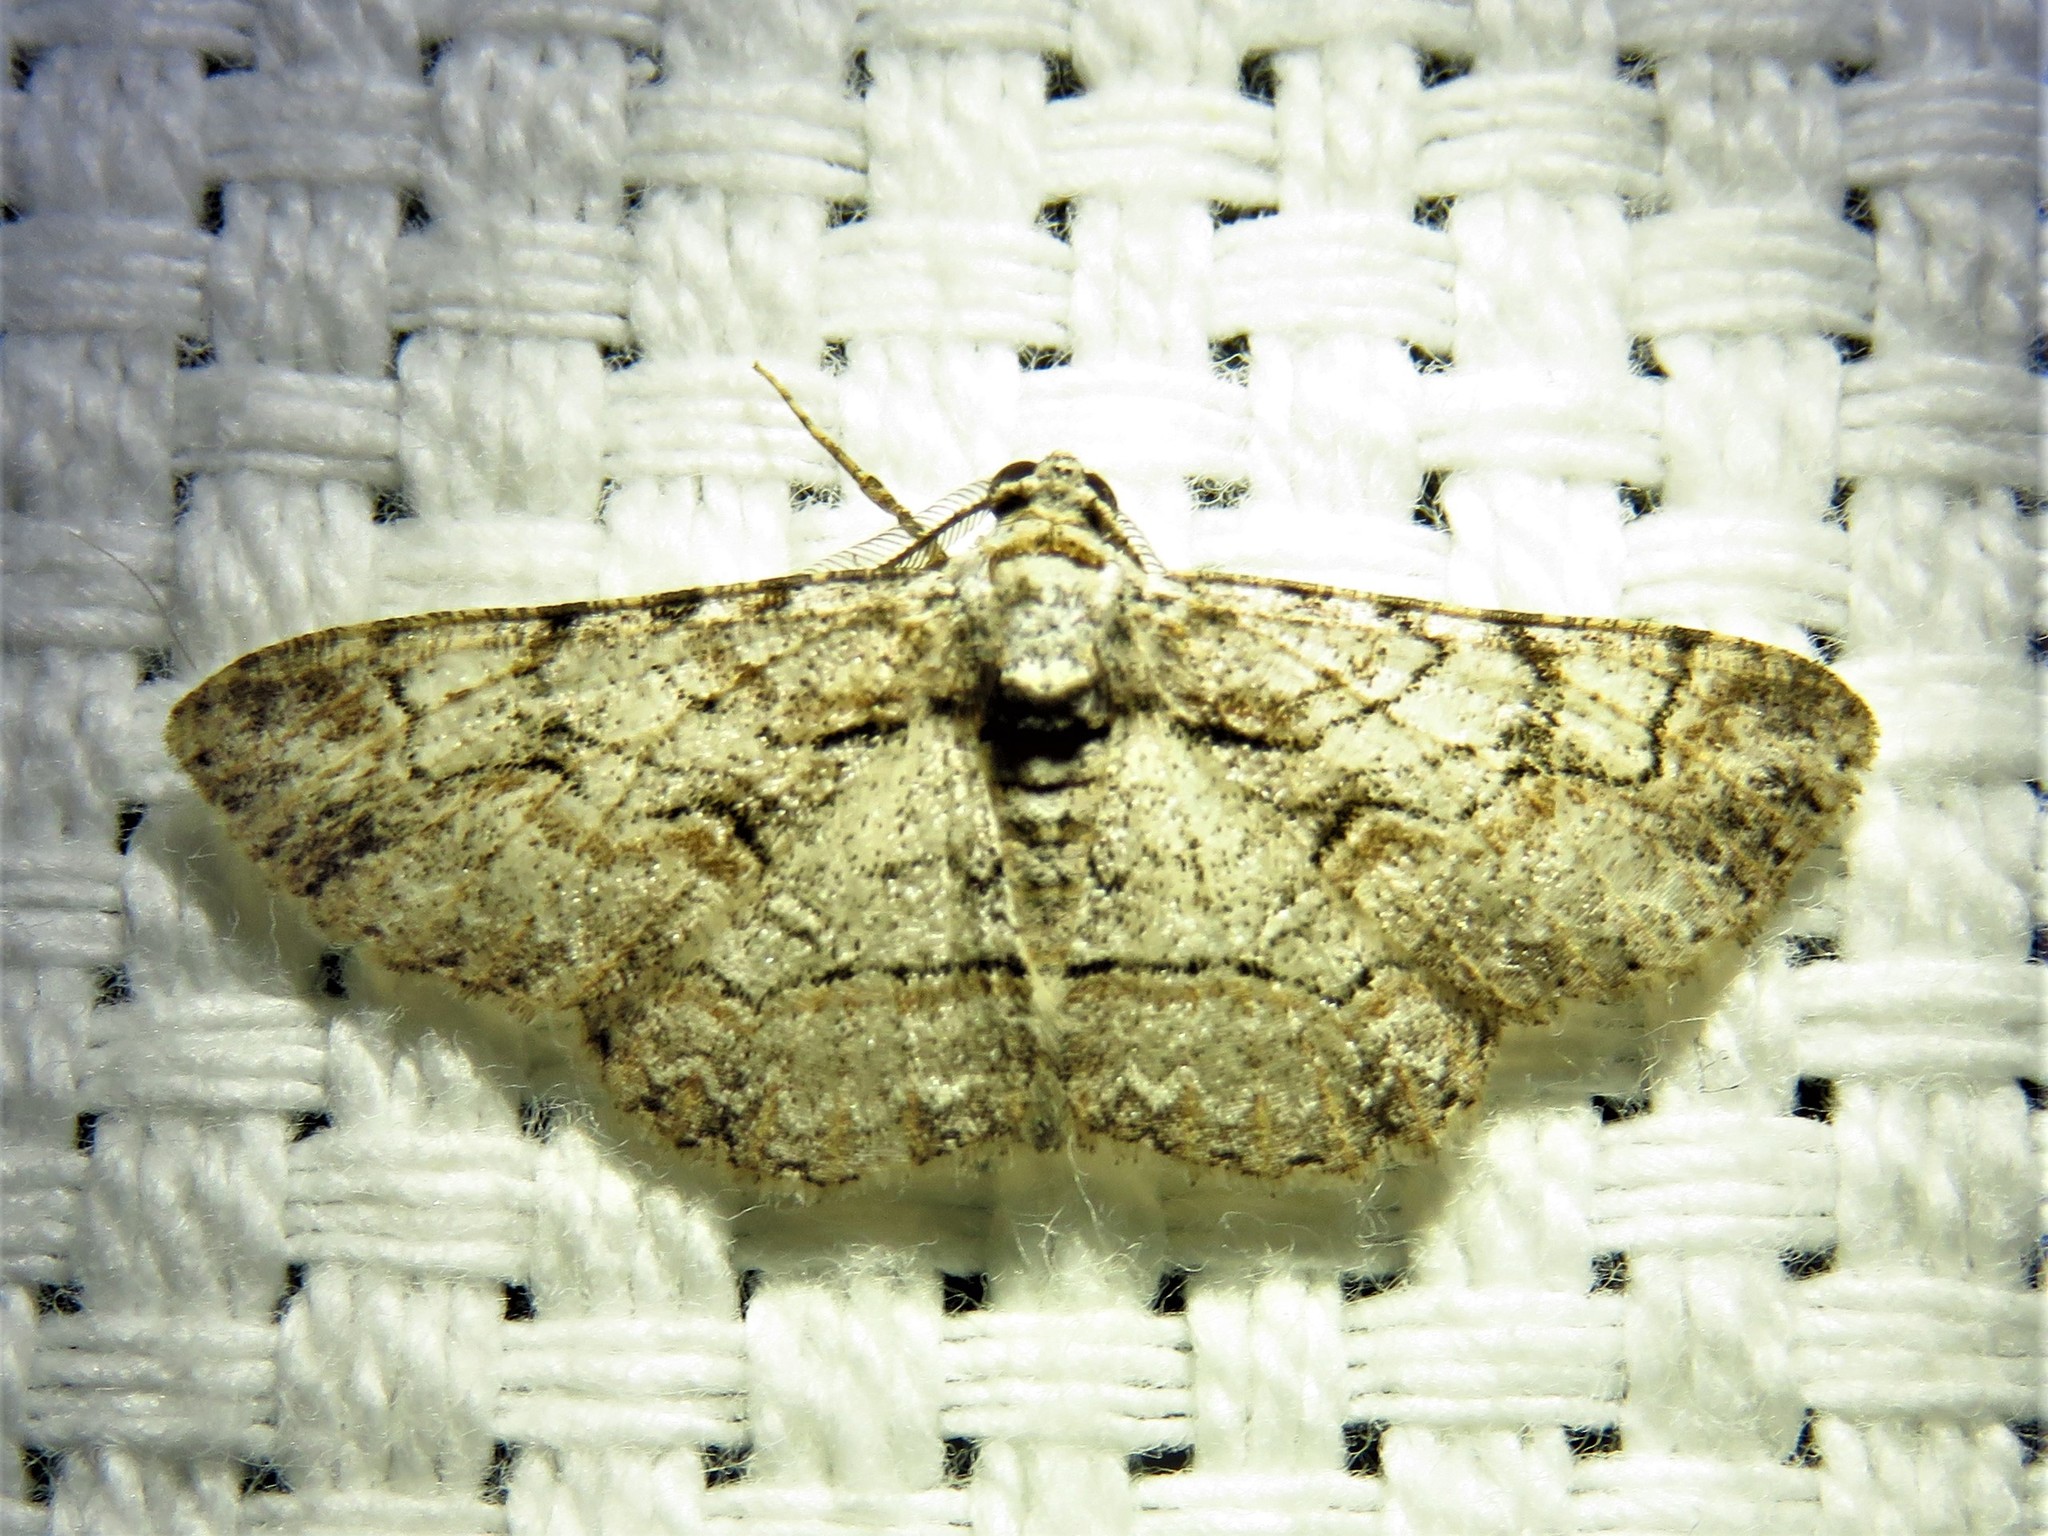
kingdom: Animalia
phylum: Arthropoda
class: Insecta
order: Lepidoptera
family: Geometridae
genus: Iridopsis
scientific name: Iridopsis defectaria
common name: Brown-shaded gray
